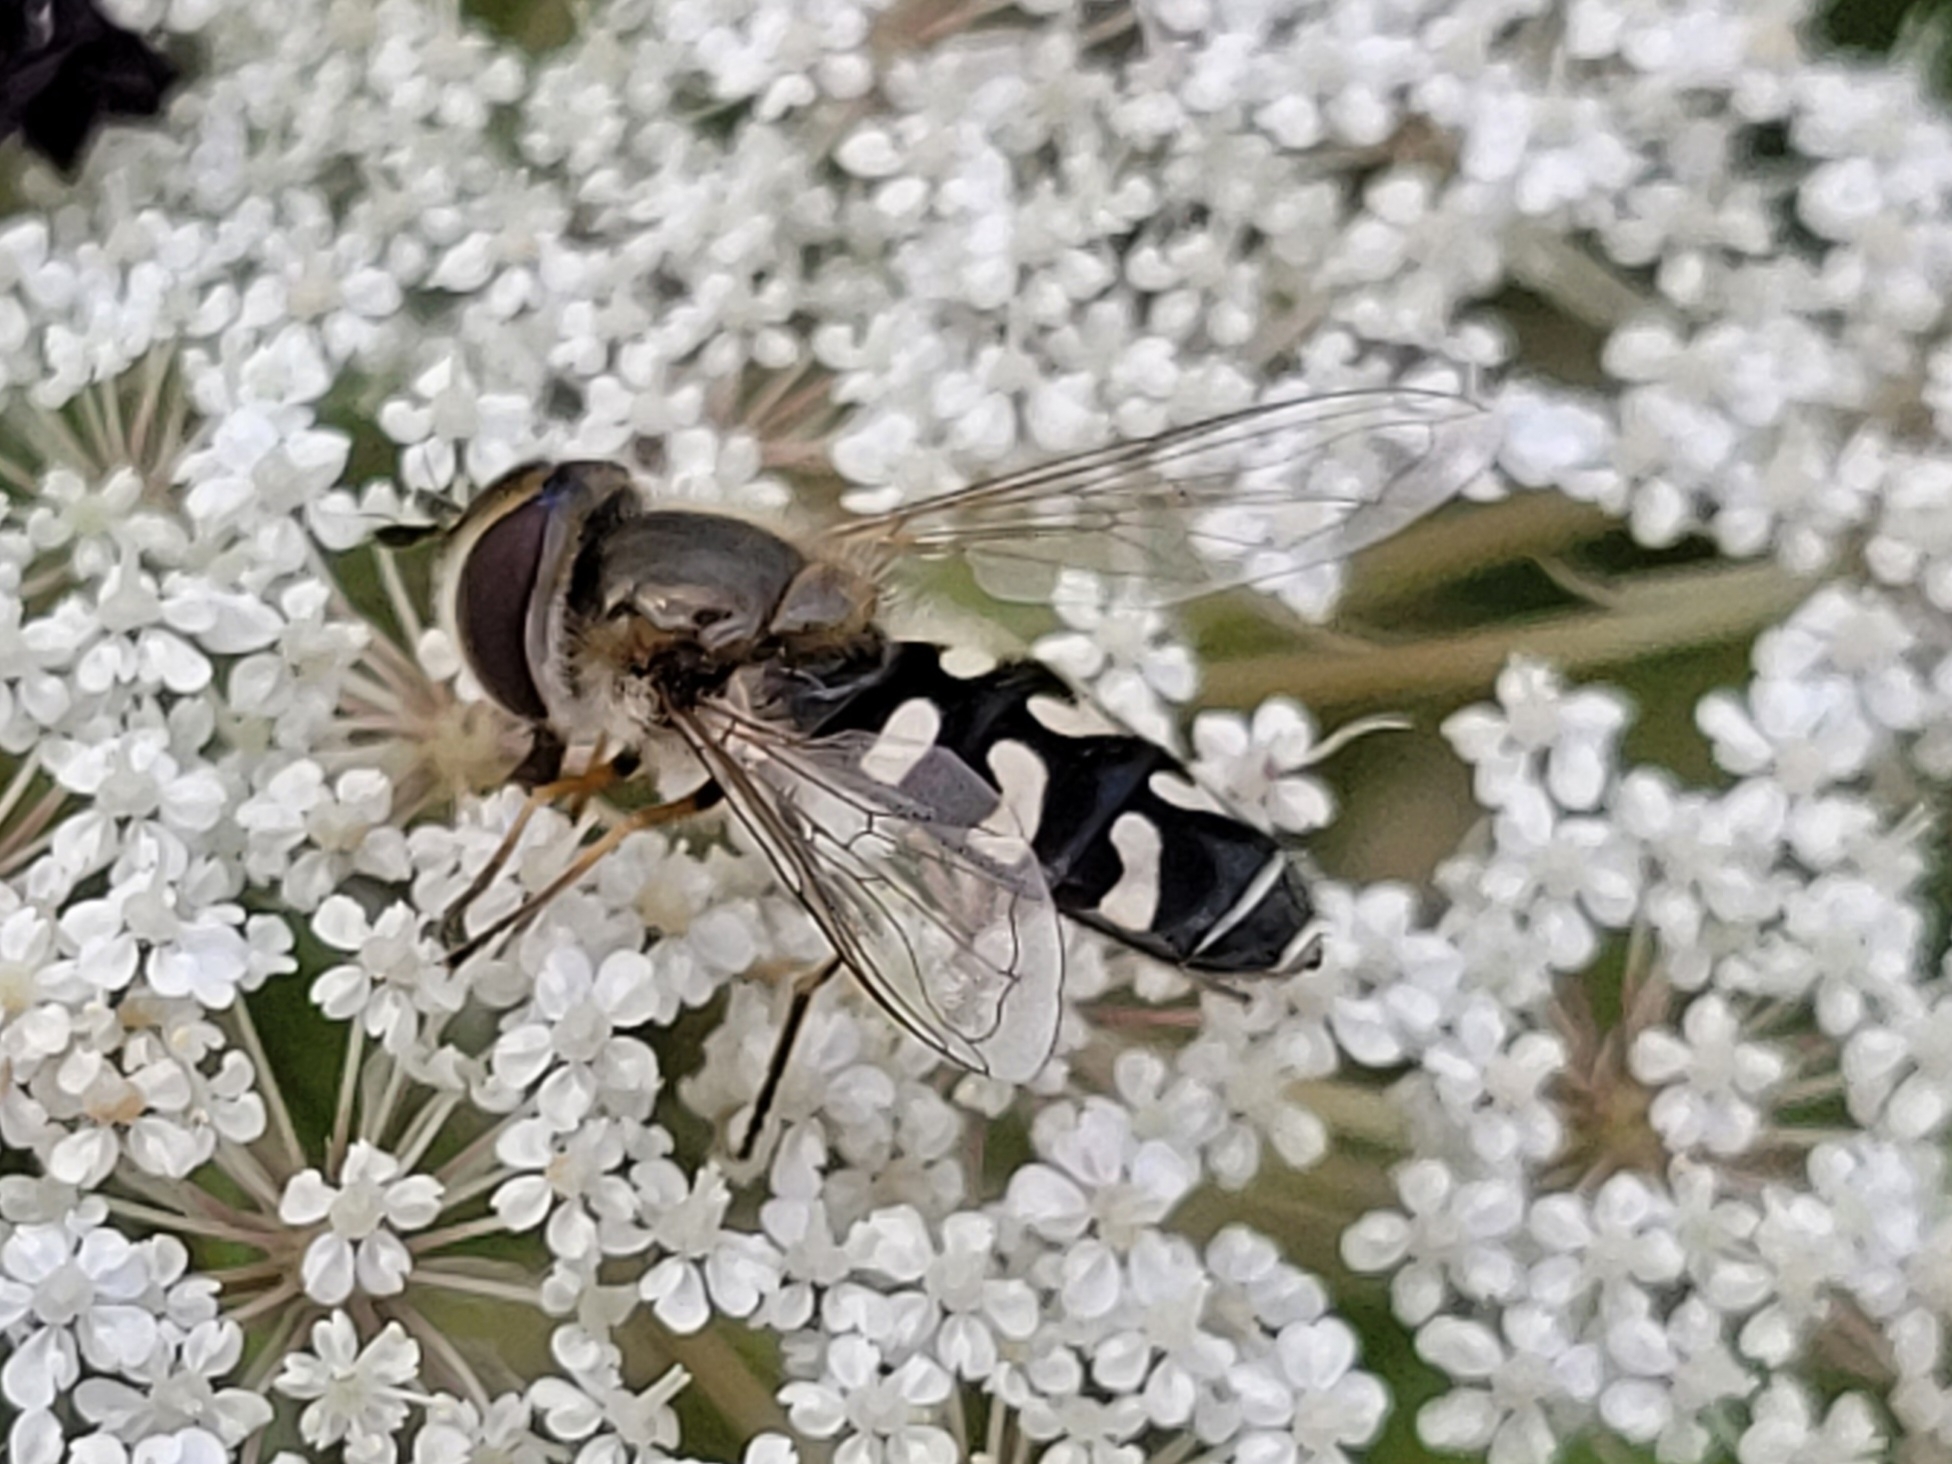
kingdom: Animalia
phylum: Arthropoda
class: Insecta
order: Diptera
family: Syrphidae
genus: Scaeva
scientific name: Scaeva pyrastri
